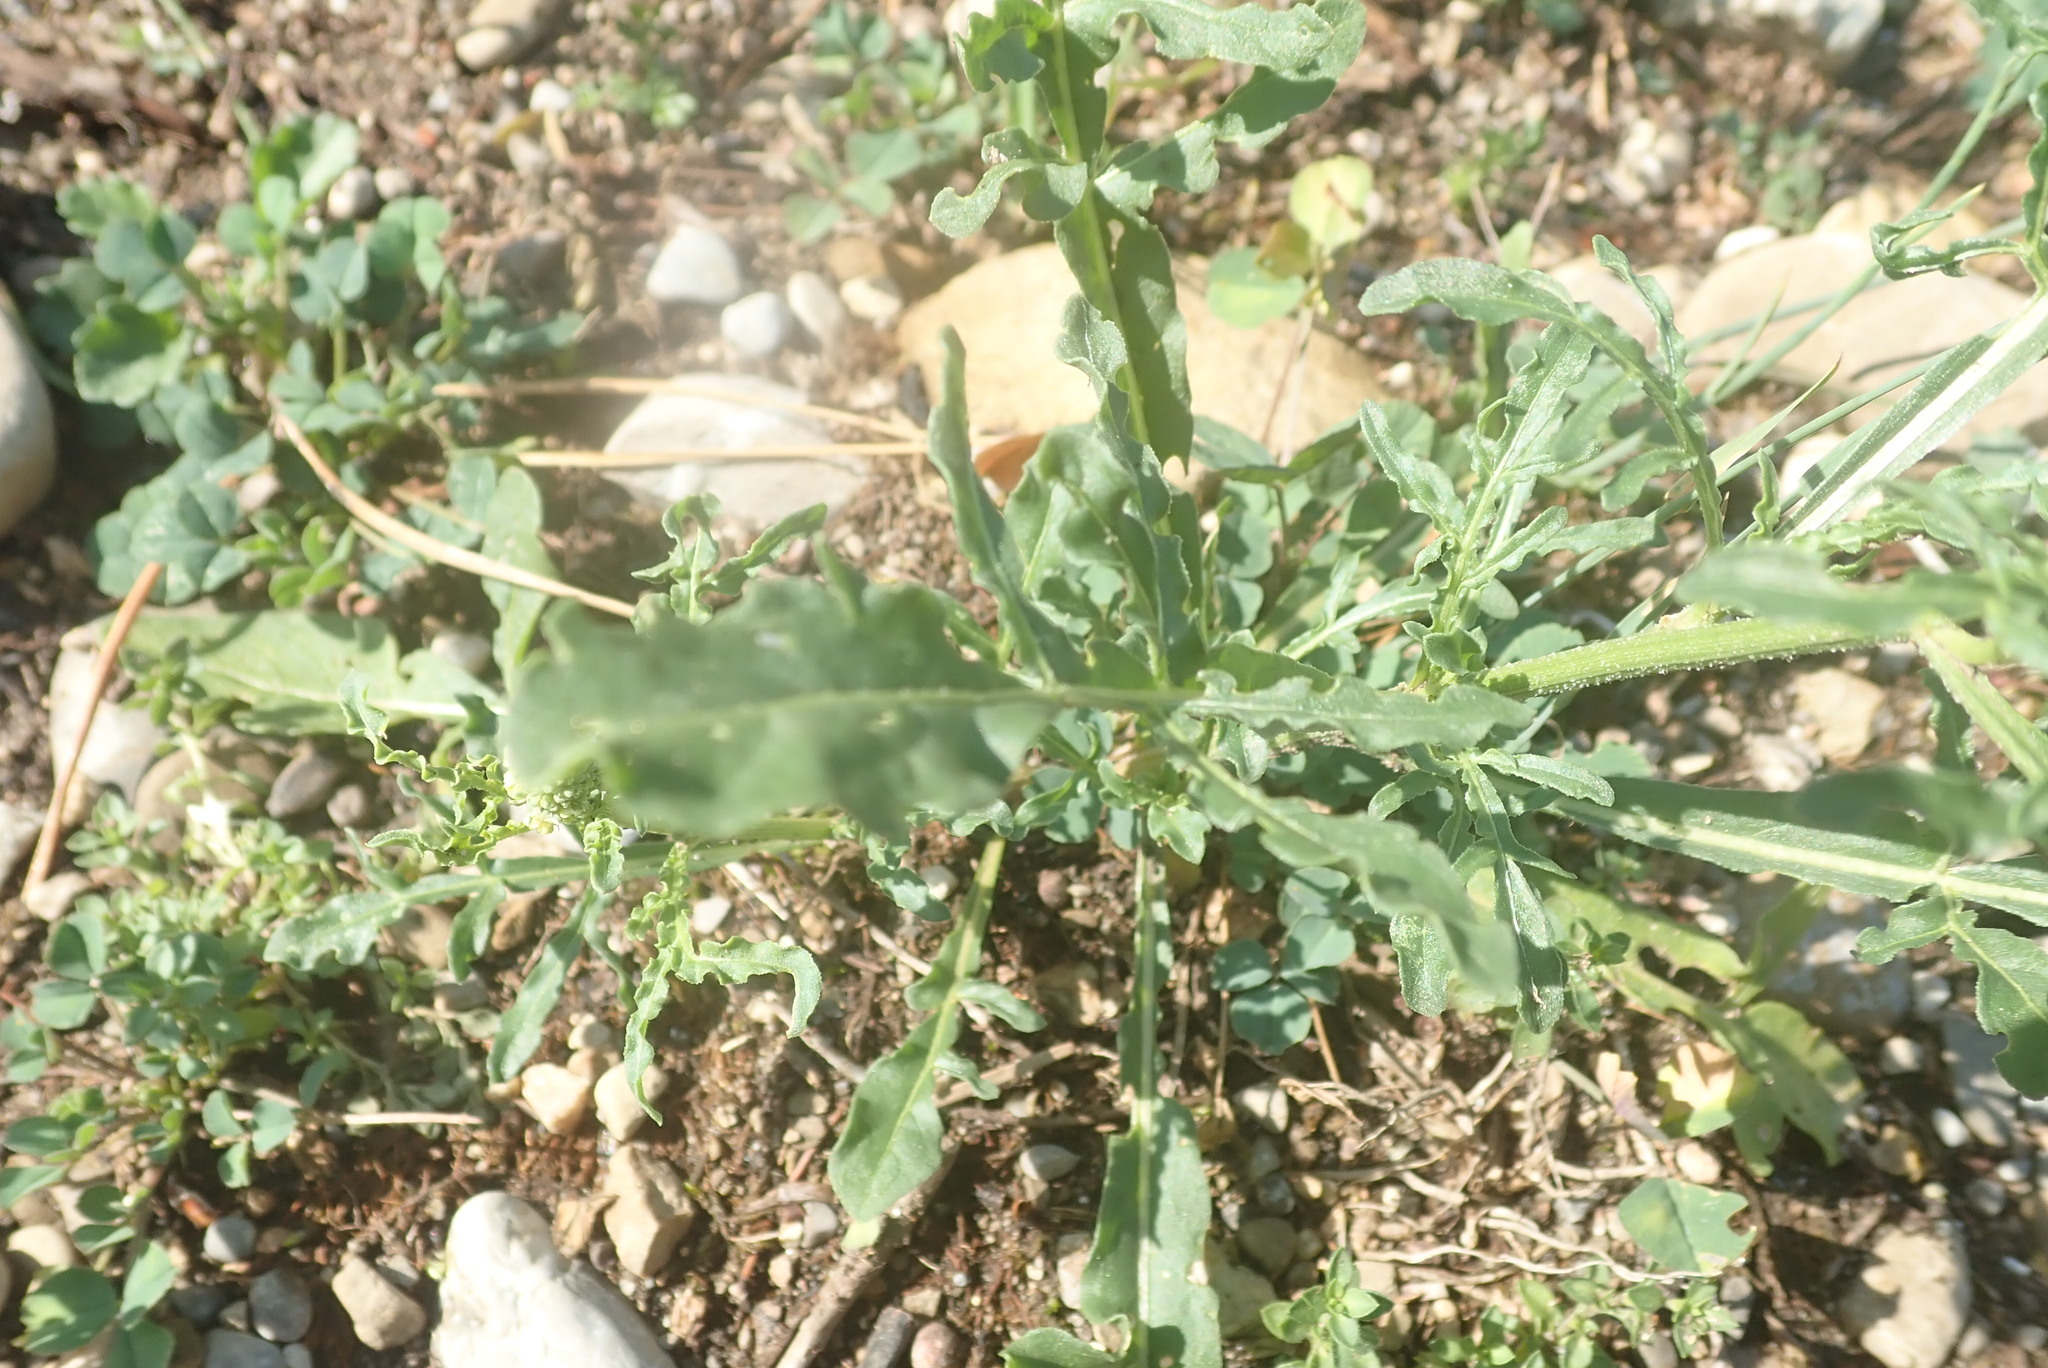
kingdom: Plantae
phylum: Tracheophyta
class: Magnoliopsida
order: Brassicales
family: Resedaceae
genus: Reseda
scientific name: Reseda lutea
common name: Wild mignonette
